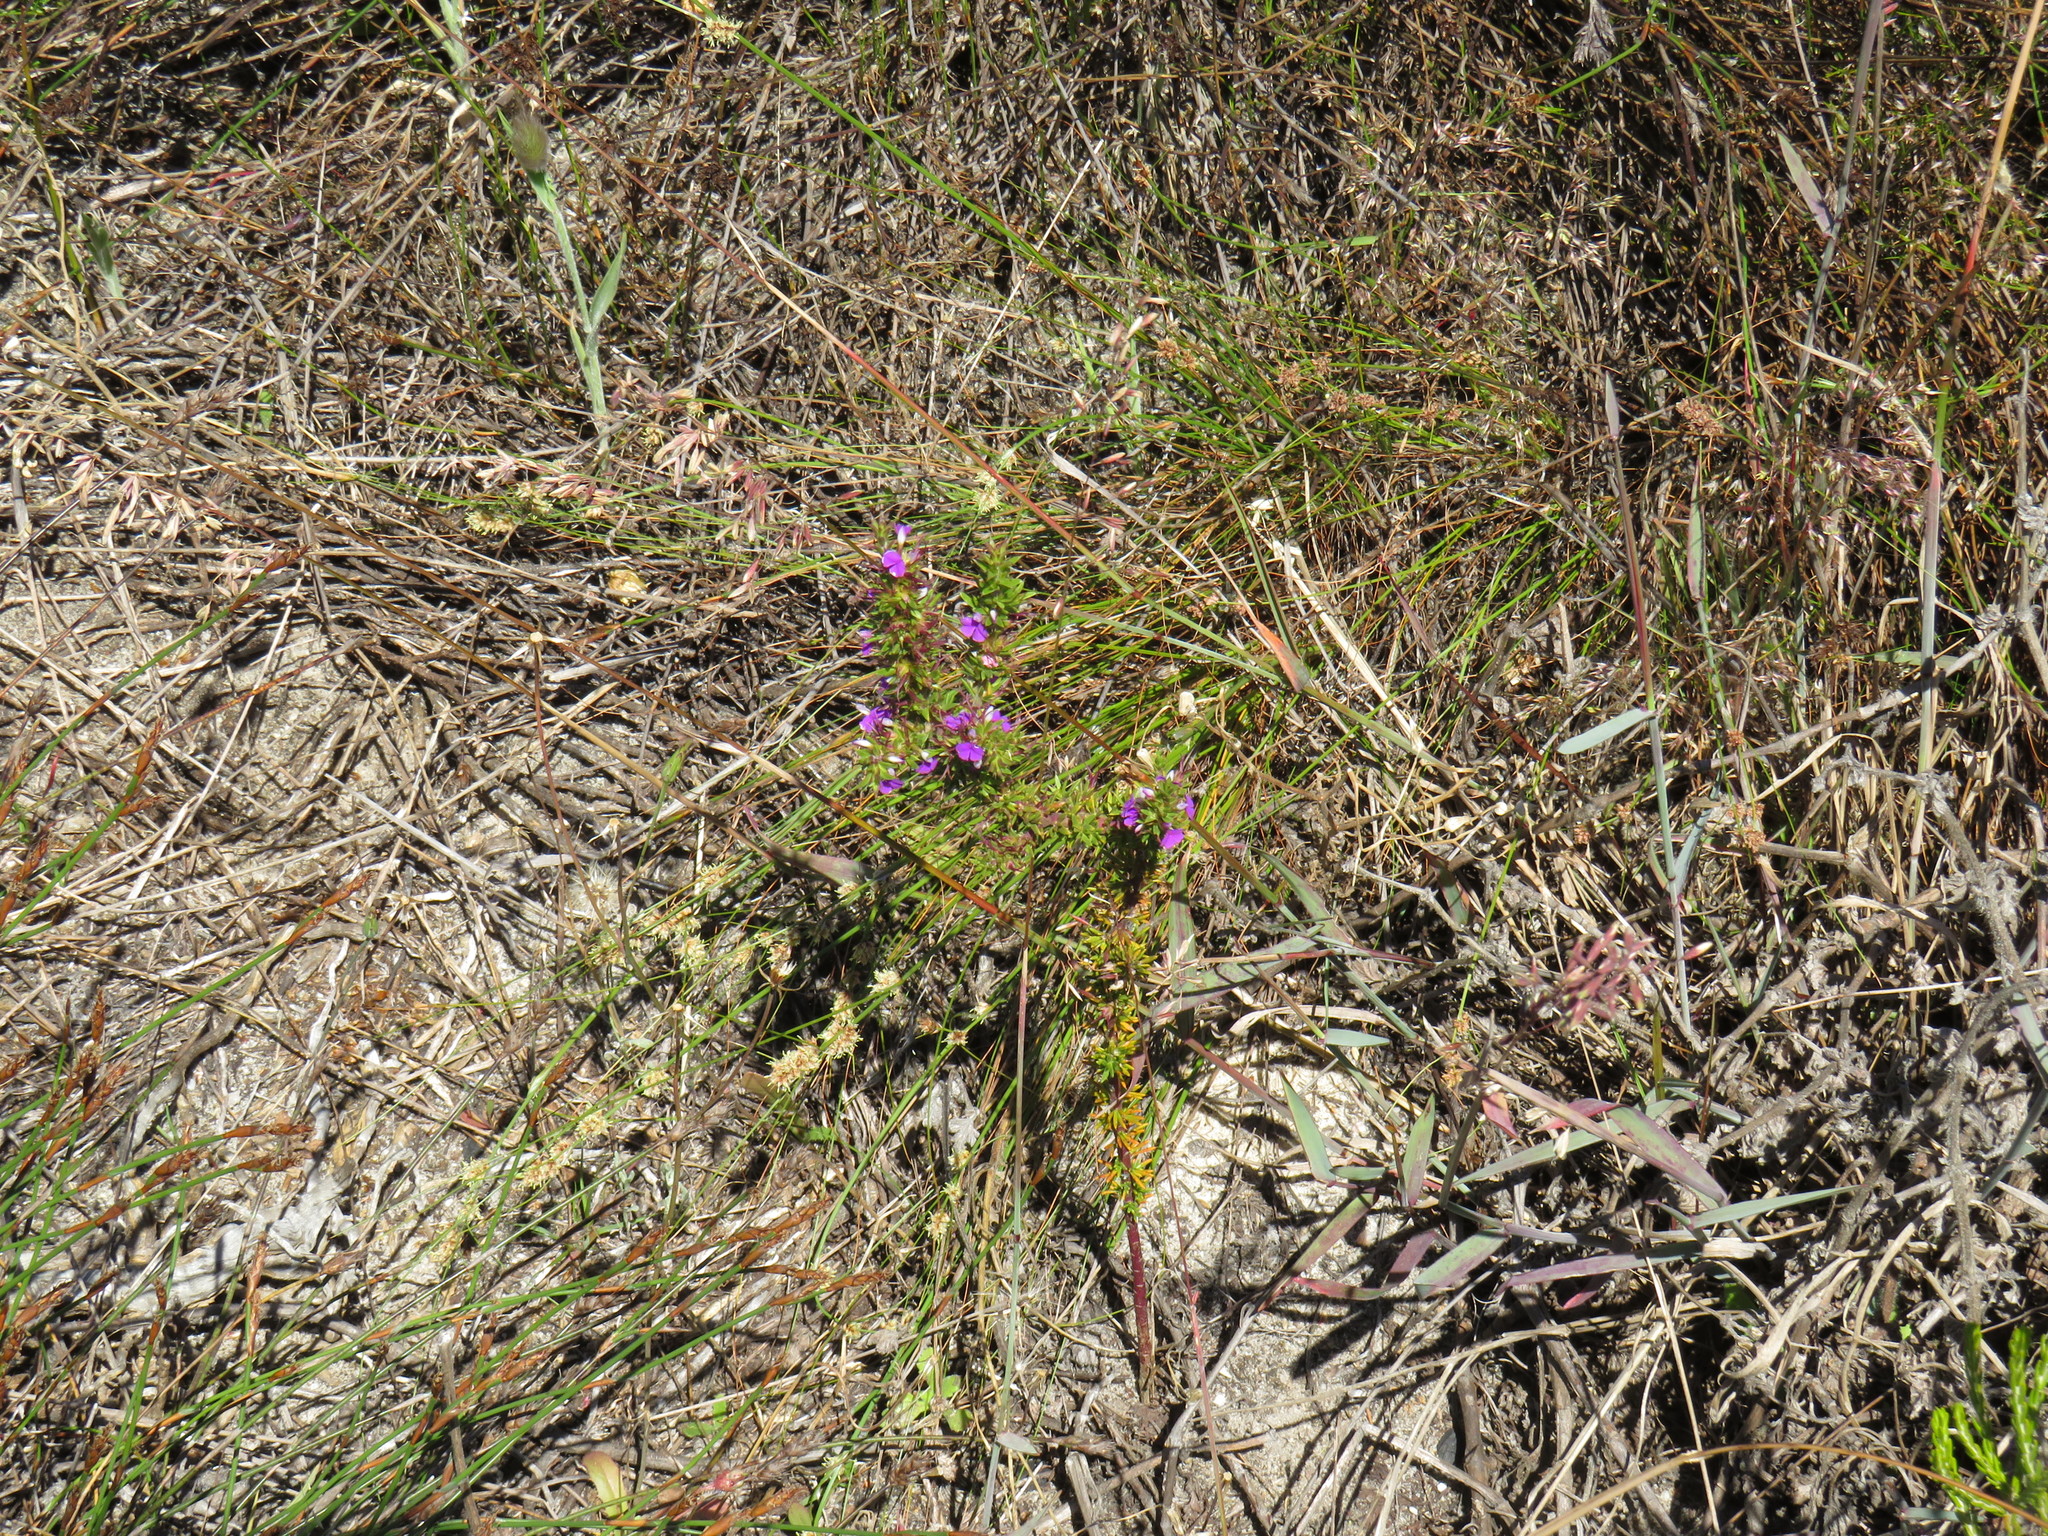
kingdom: Plantae
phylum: Tracheophyta
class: Magnoliopsida
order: Fabales
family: Polygalaceae
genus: Muraltia
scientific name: Muraltia heisteria
